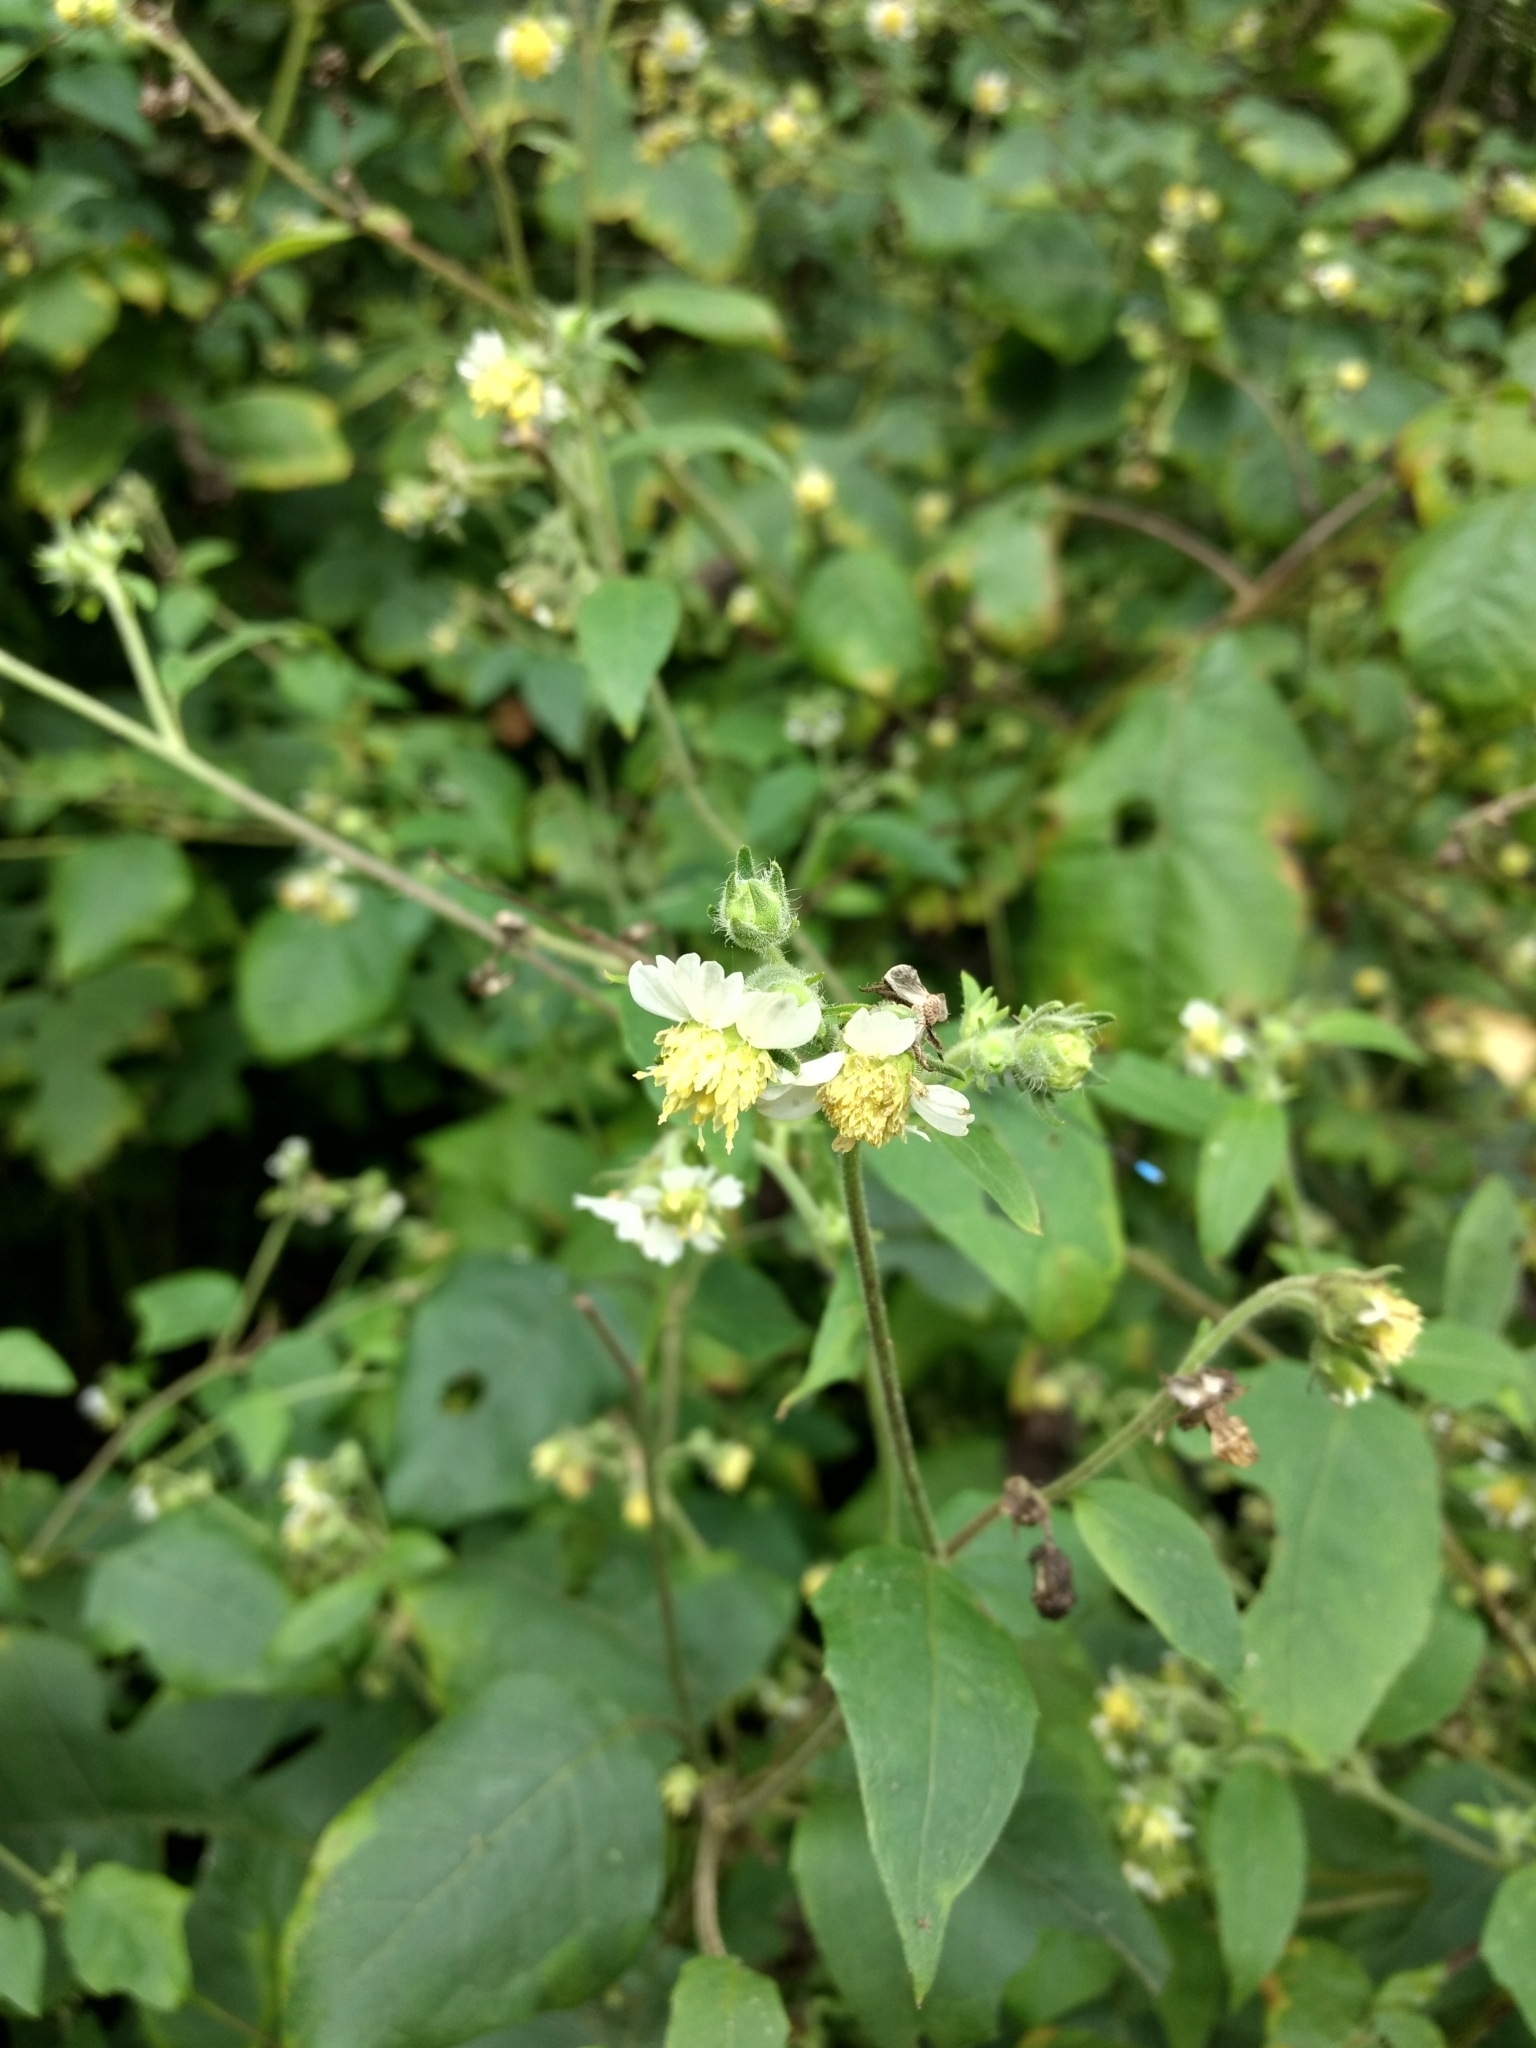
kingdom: Plantae
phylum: Tracheophyta
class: Magnoliopsida
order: Asterales
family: Asteraceae
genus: Polymnia
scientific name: Polymnia canadensis
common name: Pale-flowered leafcup
